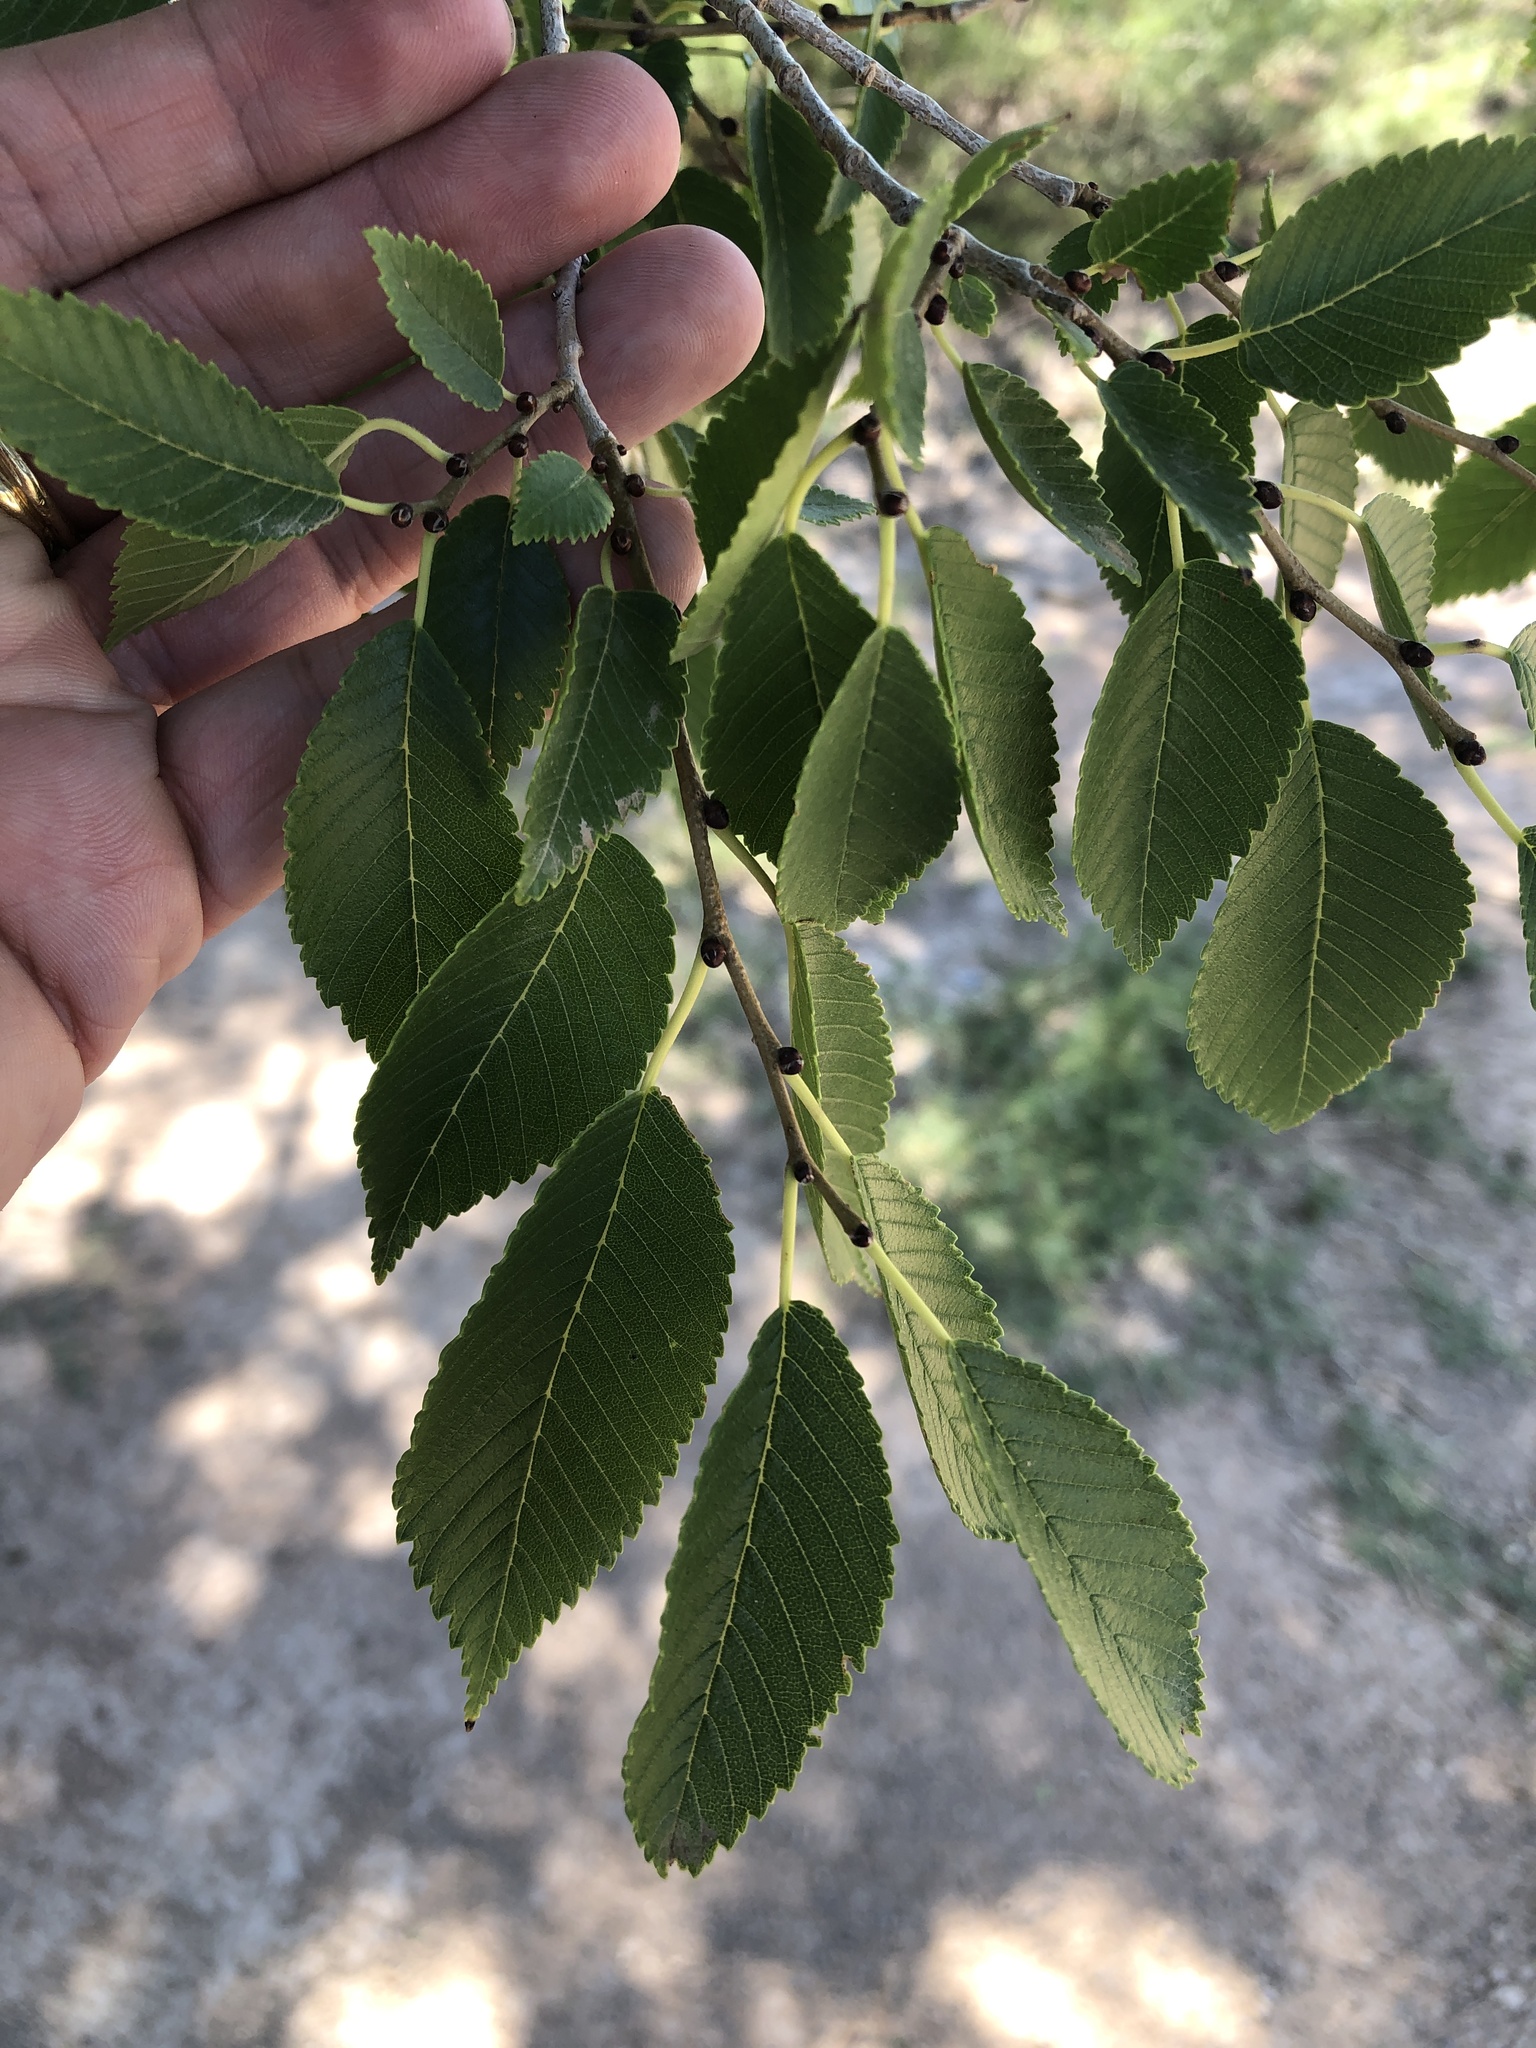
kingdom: Plantae
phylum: Tracheophyta
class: Magnoliopsida
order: Rosales
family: Ulmaceae
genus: Ulmus
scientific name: Ulmus pumila
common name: Siberian elm
